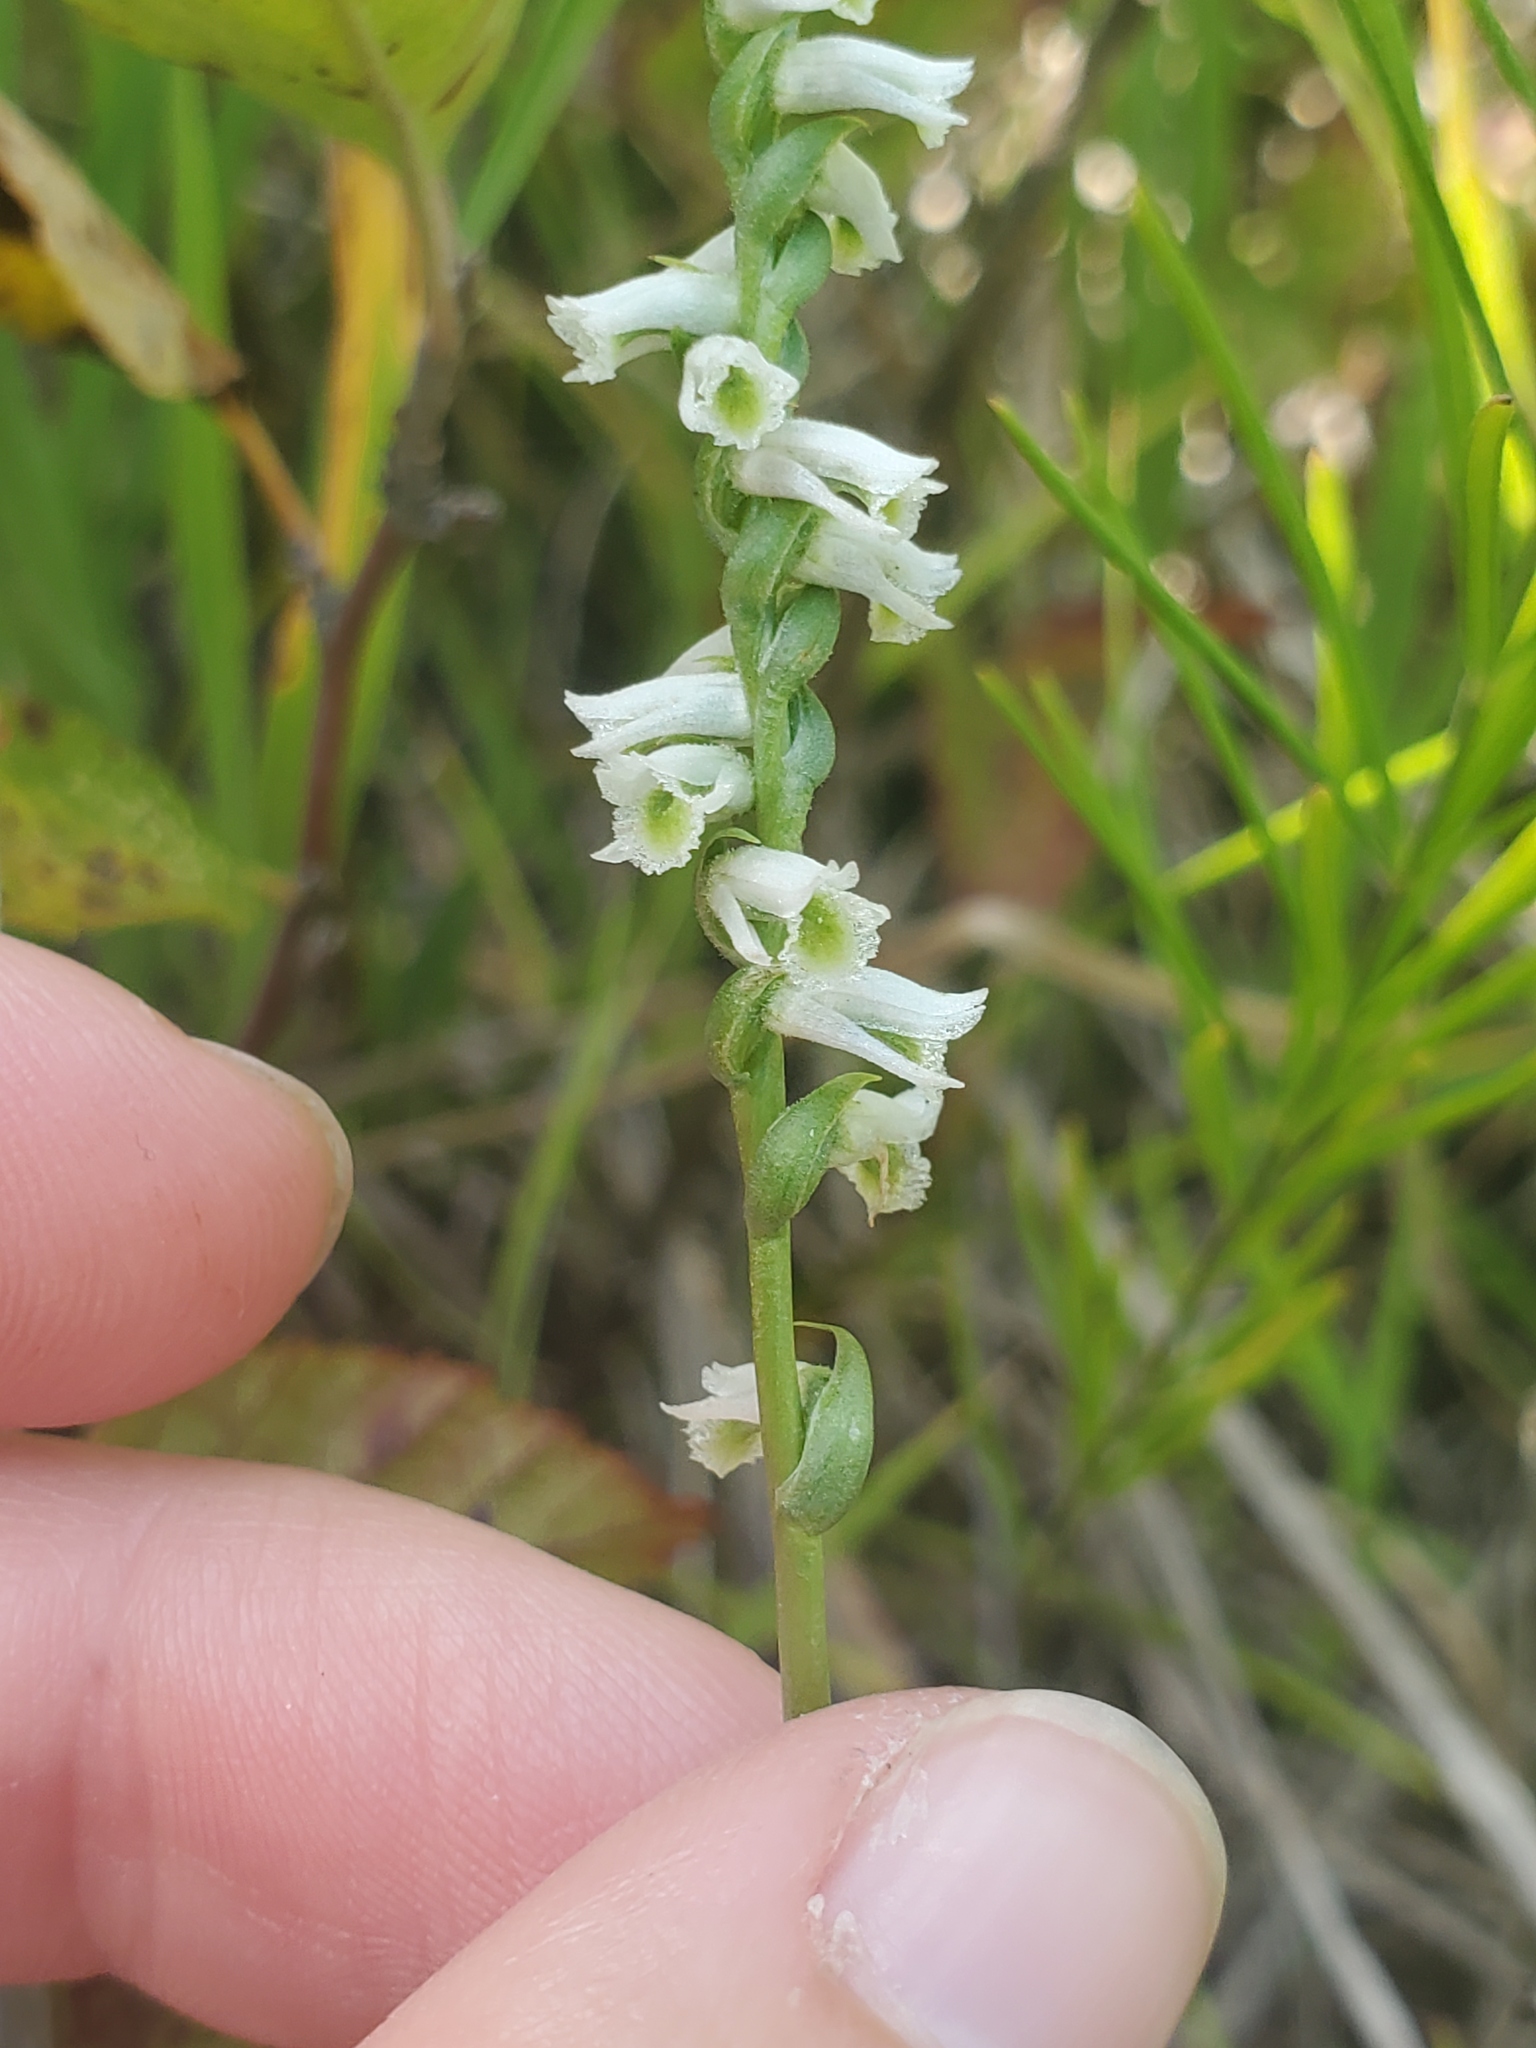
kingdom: Plantae
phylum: Tracheophyta
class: Liliopsida
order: Asparagales
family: Orchidaceae
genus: Spiranthes
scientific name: Spiranthes lacera
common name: Northern slender ladies'-tresses
